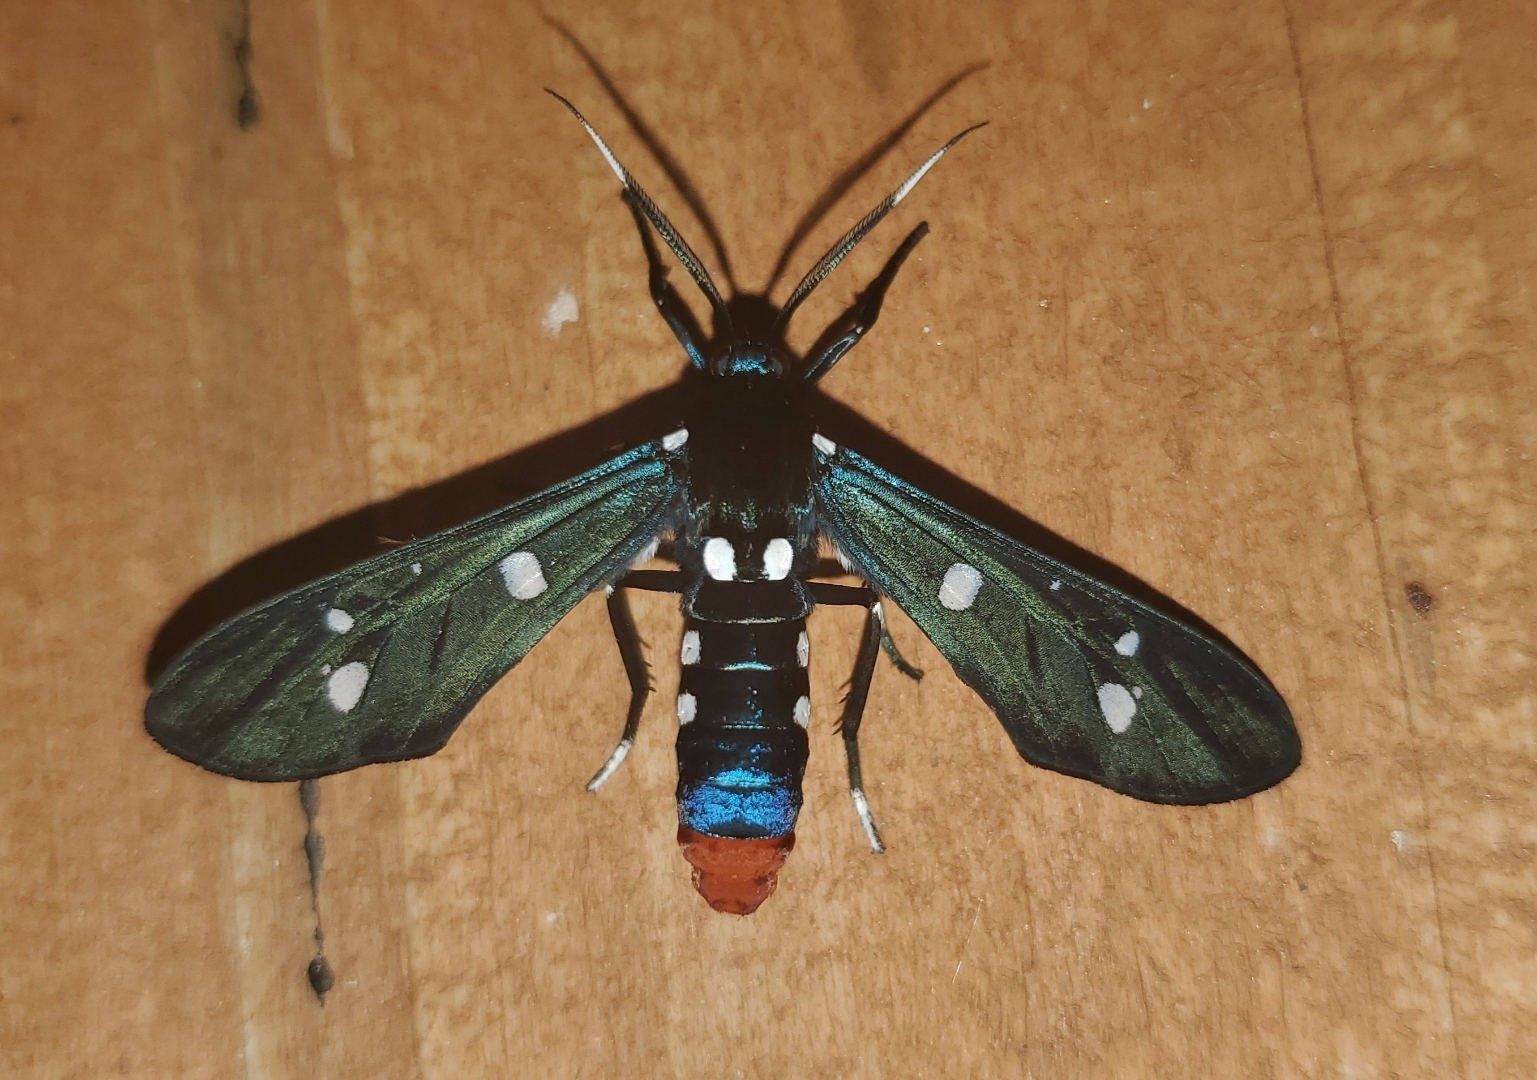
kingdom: Animalia
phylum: Arthropoda
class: Insecta
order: Lepidoptera
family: Erebidae
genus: Syntomeida
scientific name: Syntomeida epilais
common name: Polka-dot wasp moth
